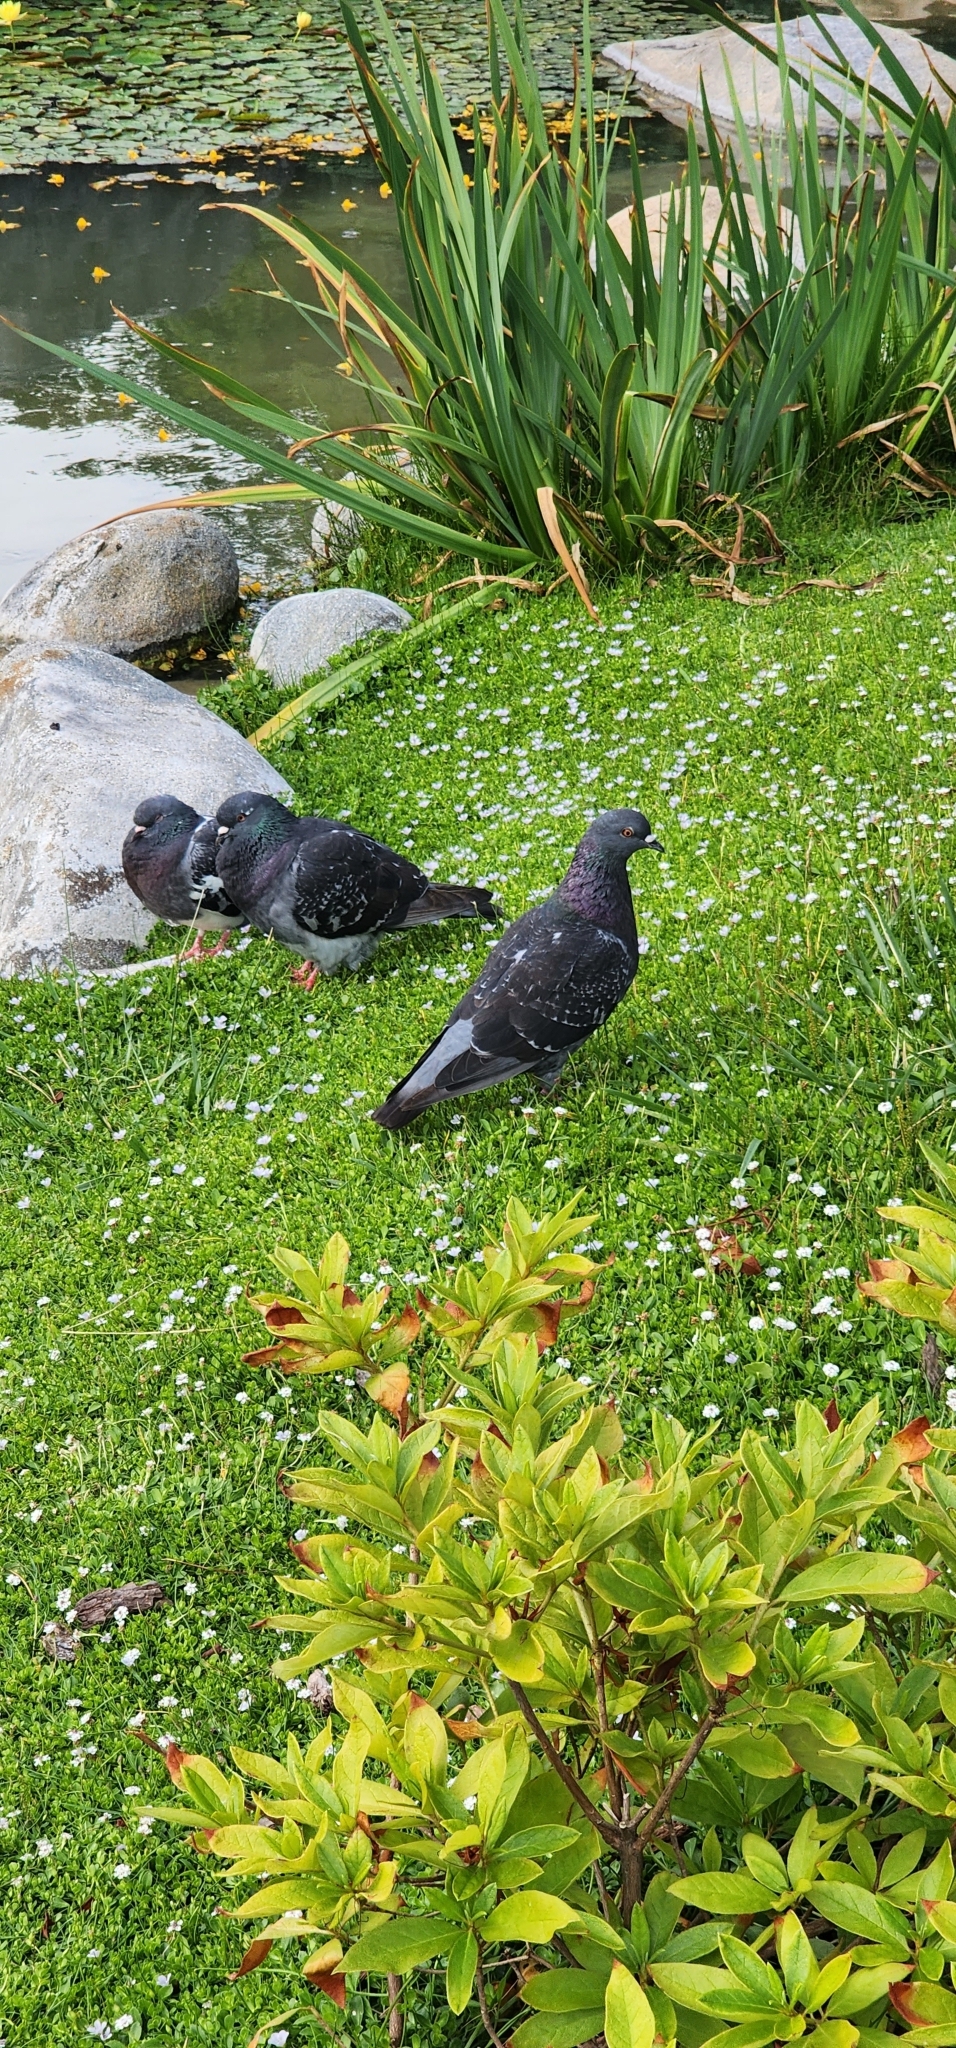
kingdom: Animalia
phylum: Chordata
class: Aves
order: Columbiformes
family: Columbidae
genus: Columba
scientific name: Columba livia
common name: Rock pigeon
